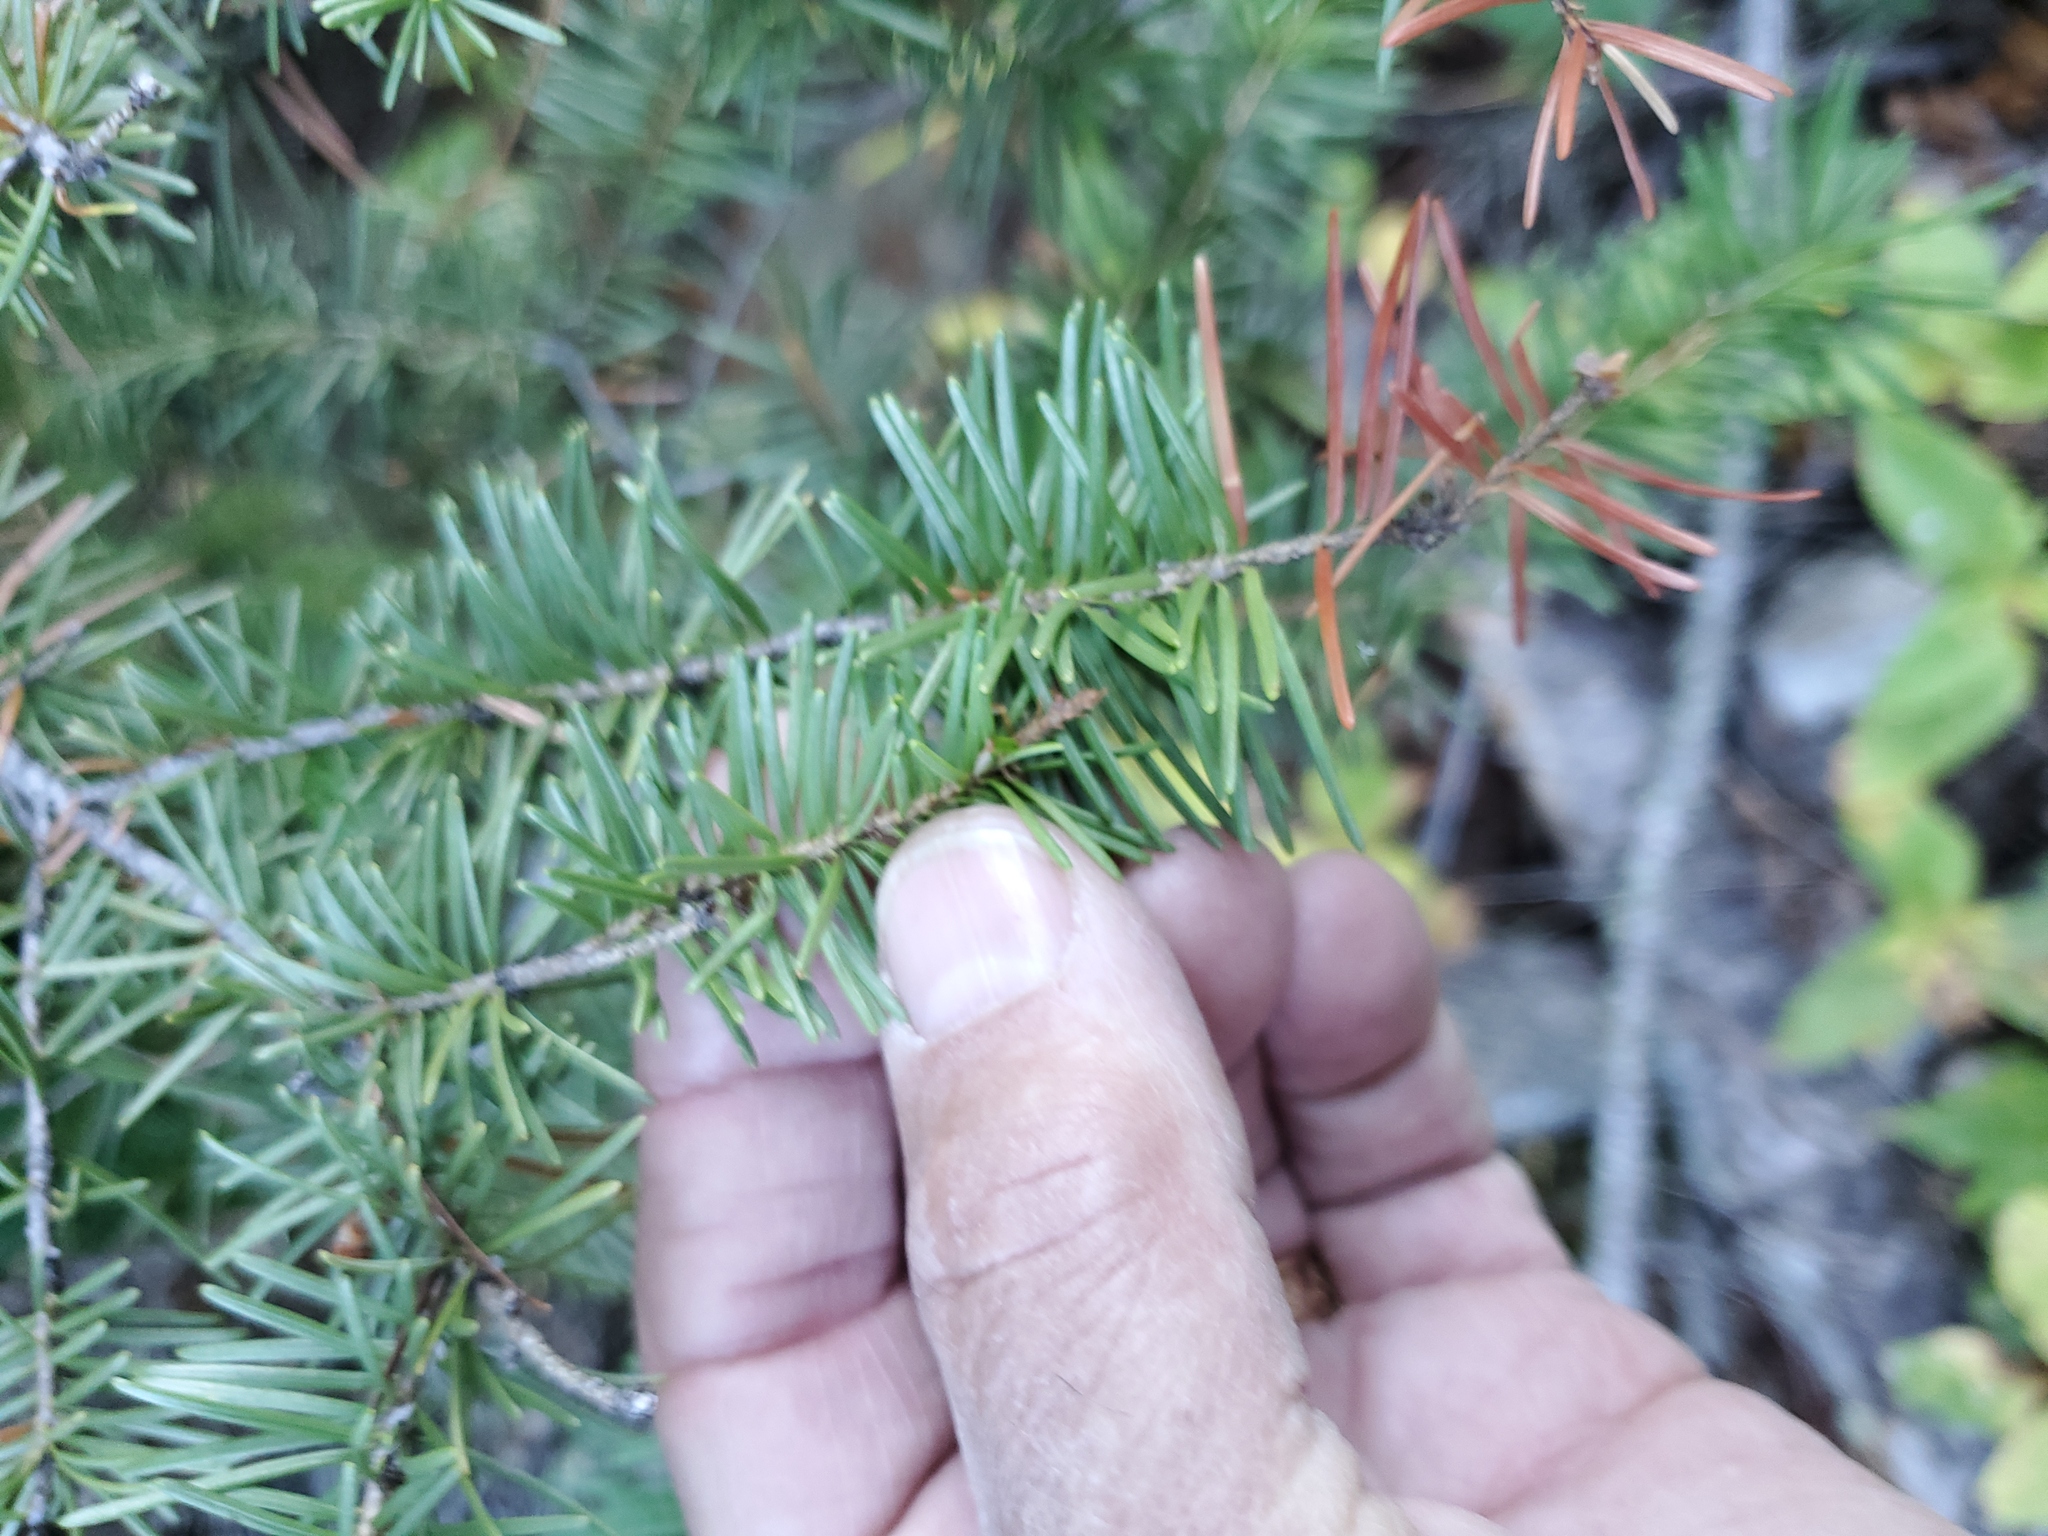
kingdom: Plantae
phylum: Tracheophyta
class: Pinopsida
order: Pinales
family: Pinaceae
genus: Pseudotsuga
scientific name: Pseudotsuga menziesii
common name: Douglas fir
